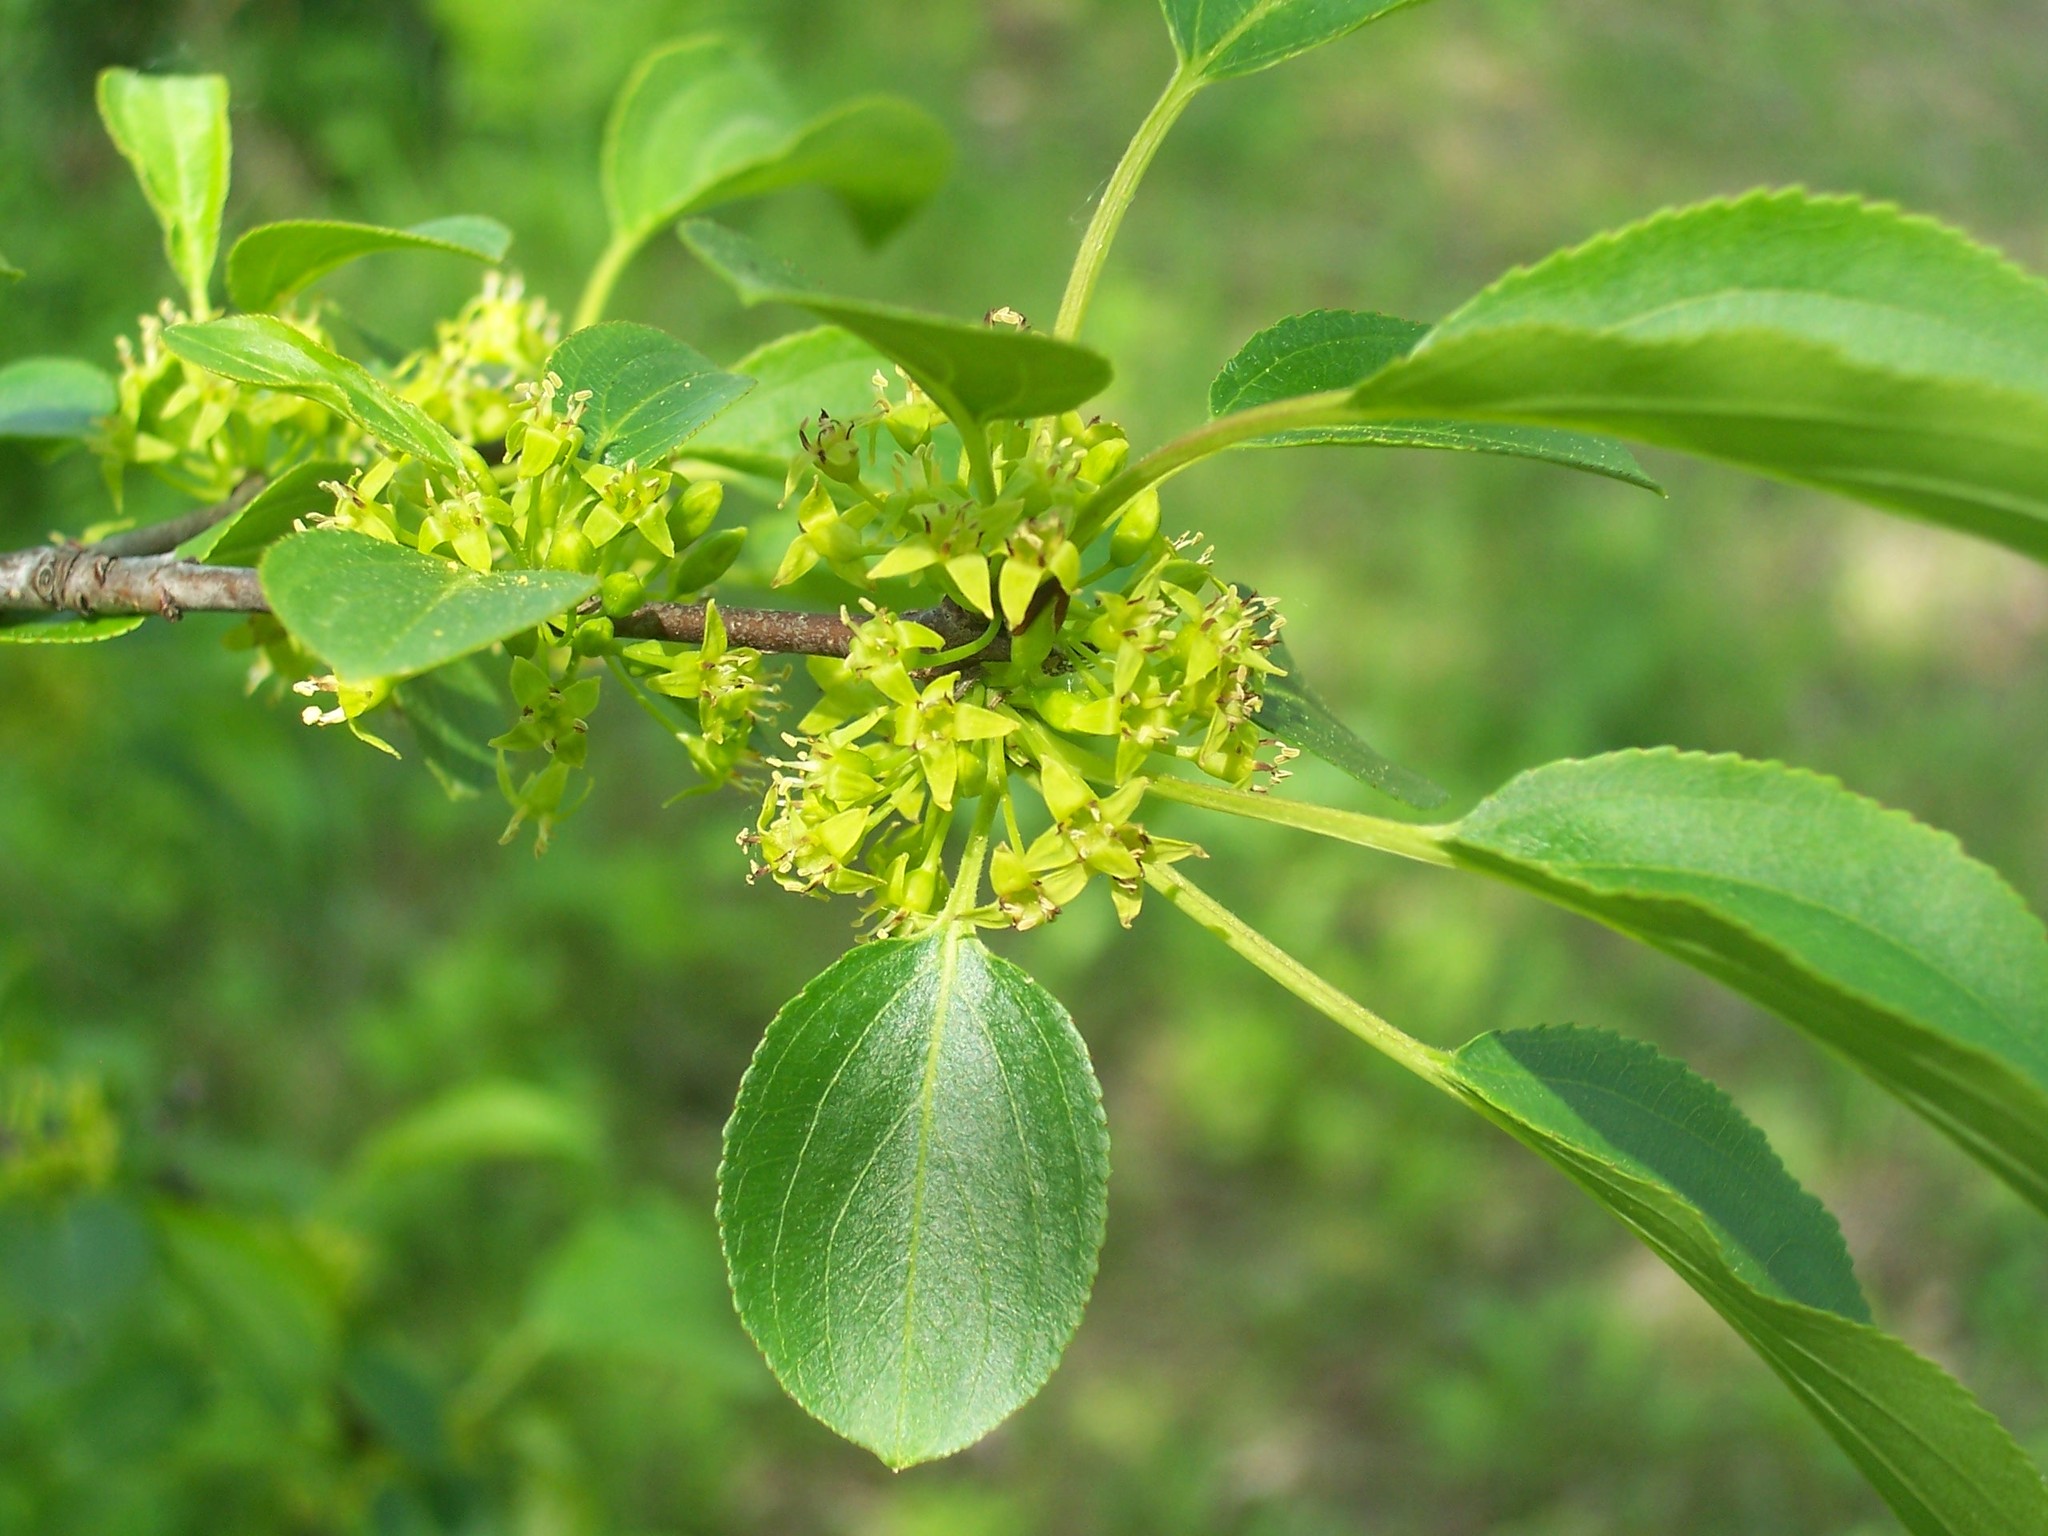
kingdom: Plantae
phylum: Tracheophyta
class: Magnoliopsida
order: Rosales
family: Rhamnaceae
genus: Rhamnus
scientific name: Rhamnus cathartica
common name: Common buckthorn
